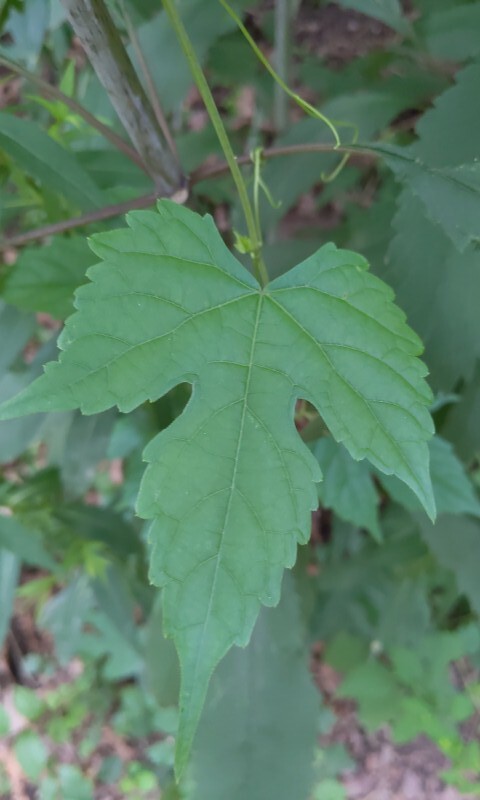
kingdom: Plantae
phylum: Tracheophyta
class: Magnoliopsida
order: Vitales
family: Vitaceae
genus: Ampelopsis
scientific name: Ampelopsis glandulosa
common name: Amur peppervine
